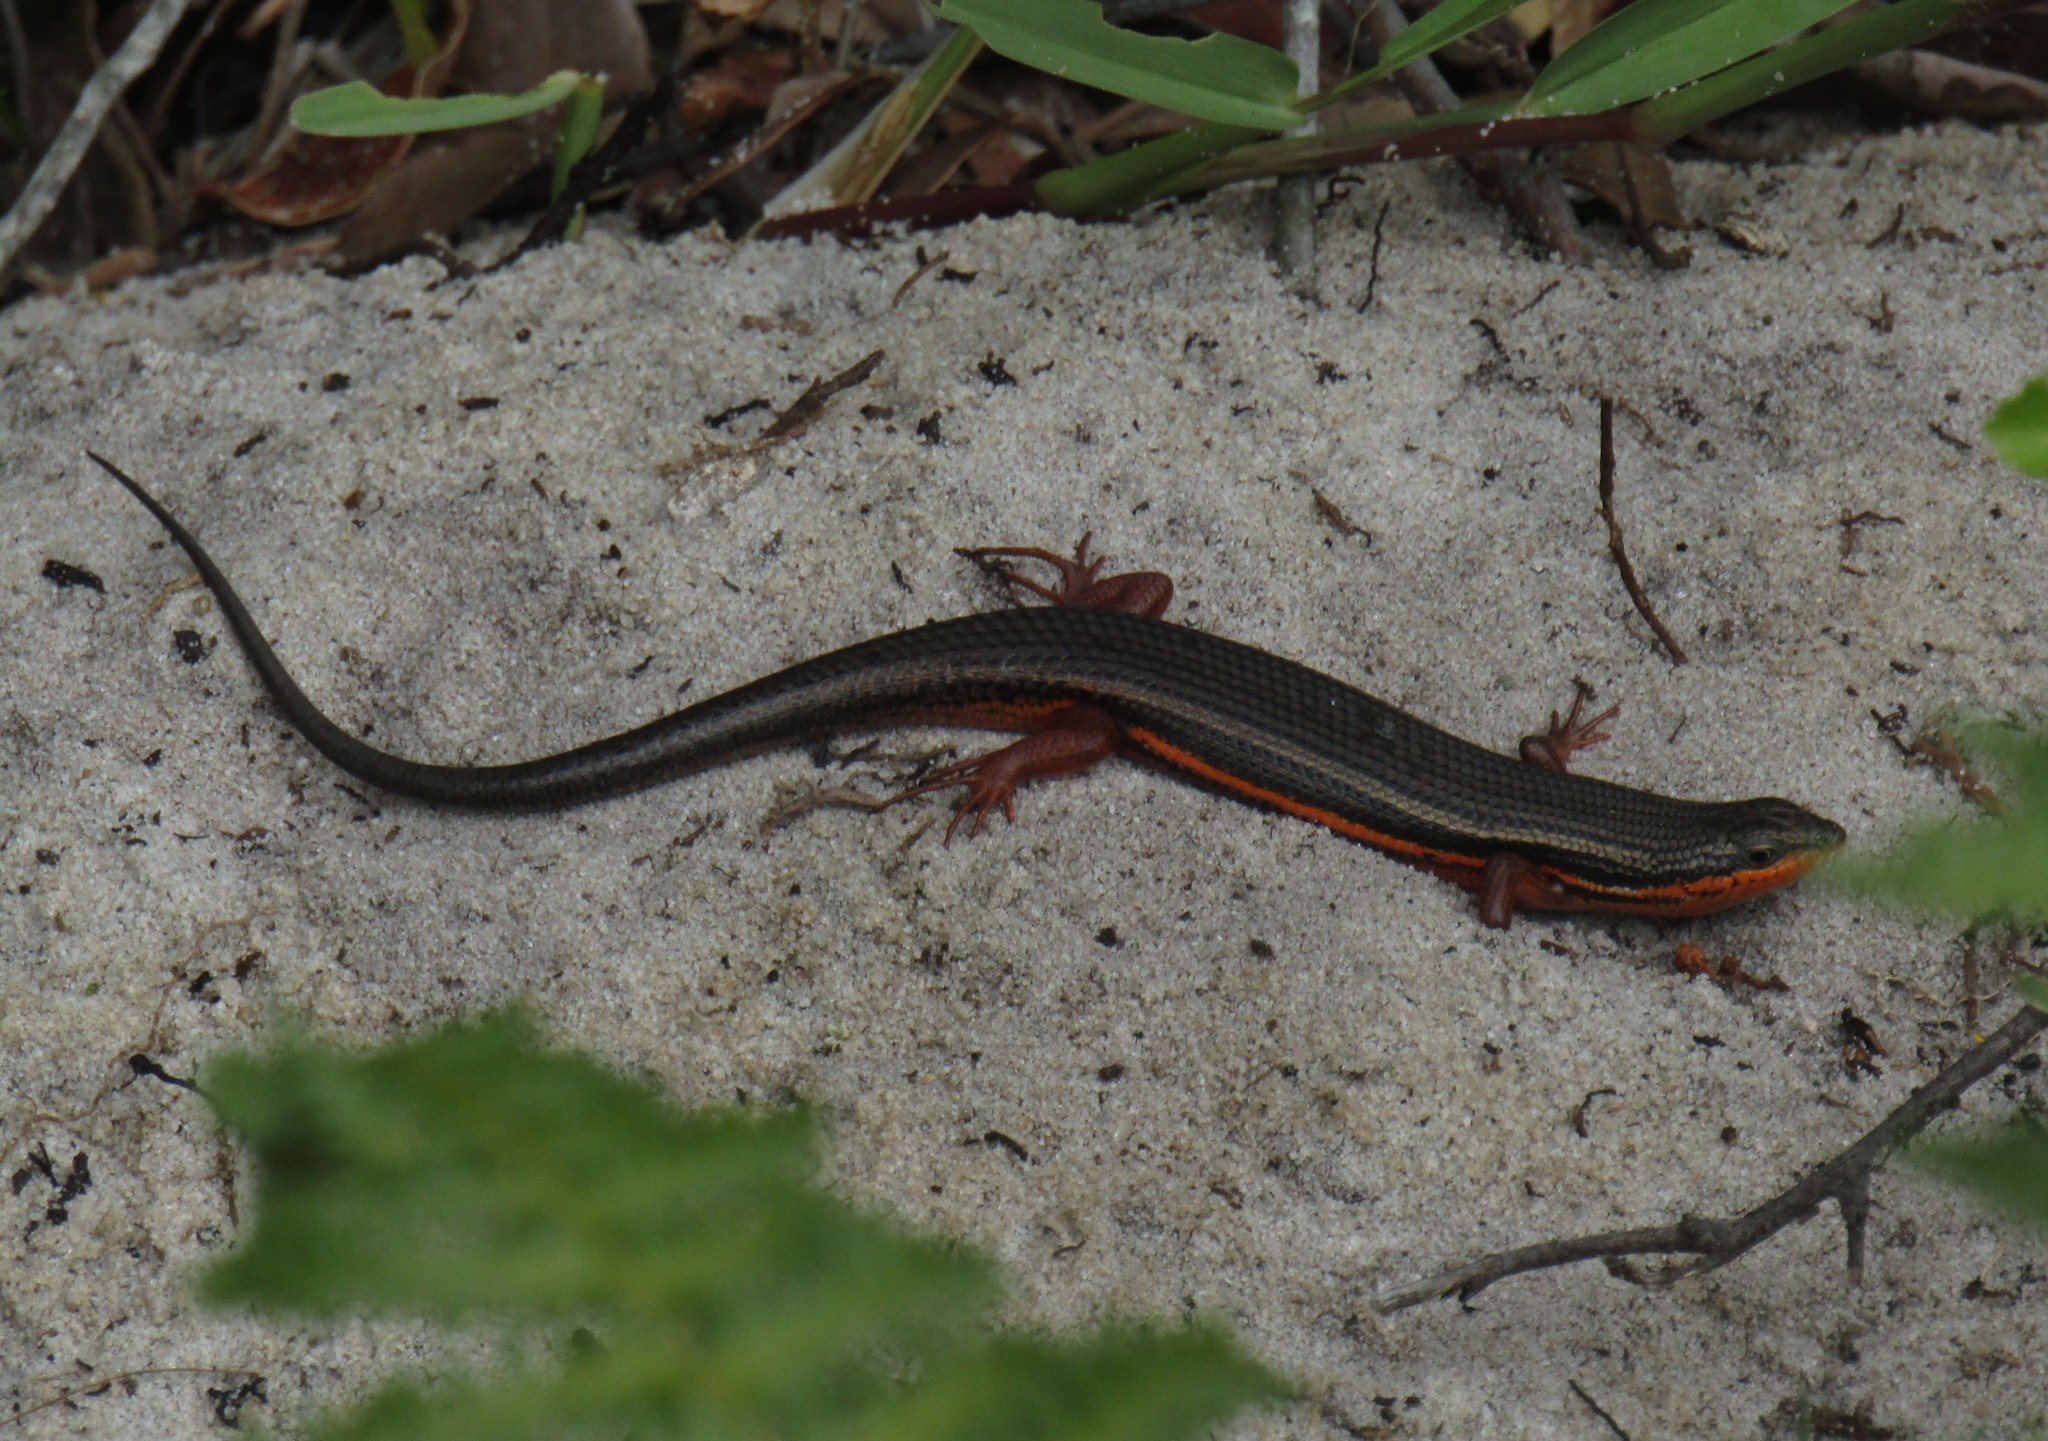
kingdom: Animalia
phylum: Chordata
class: Squamata
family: Scincidae
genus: Trachylepis
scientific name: Trachylepis homalocephala
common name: Red-sided skink
